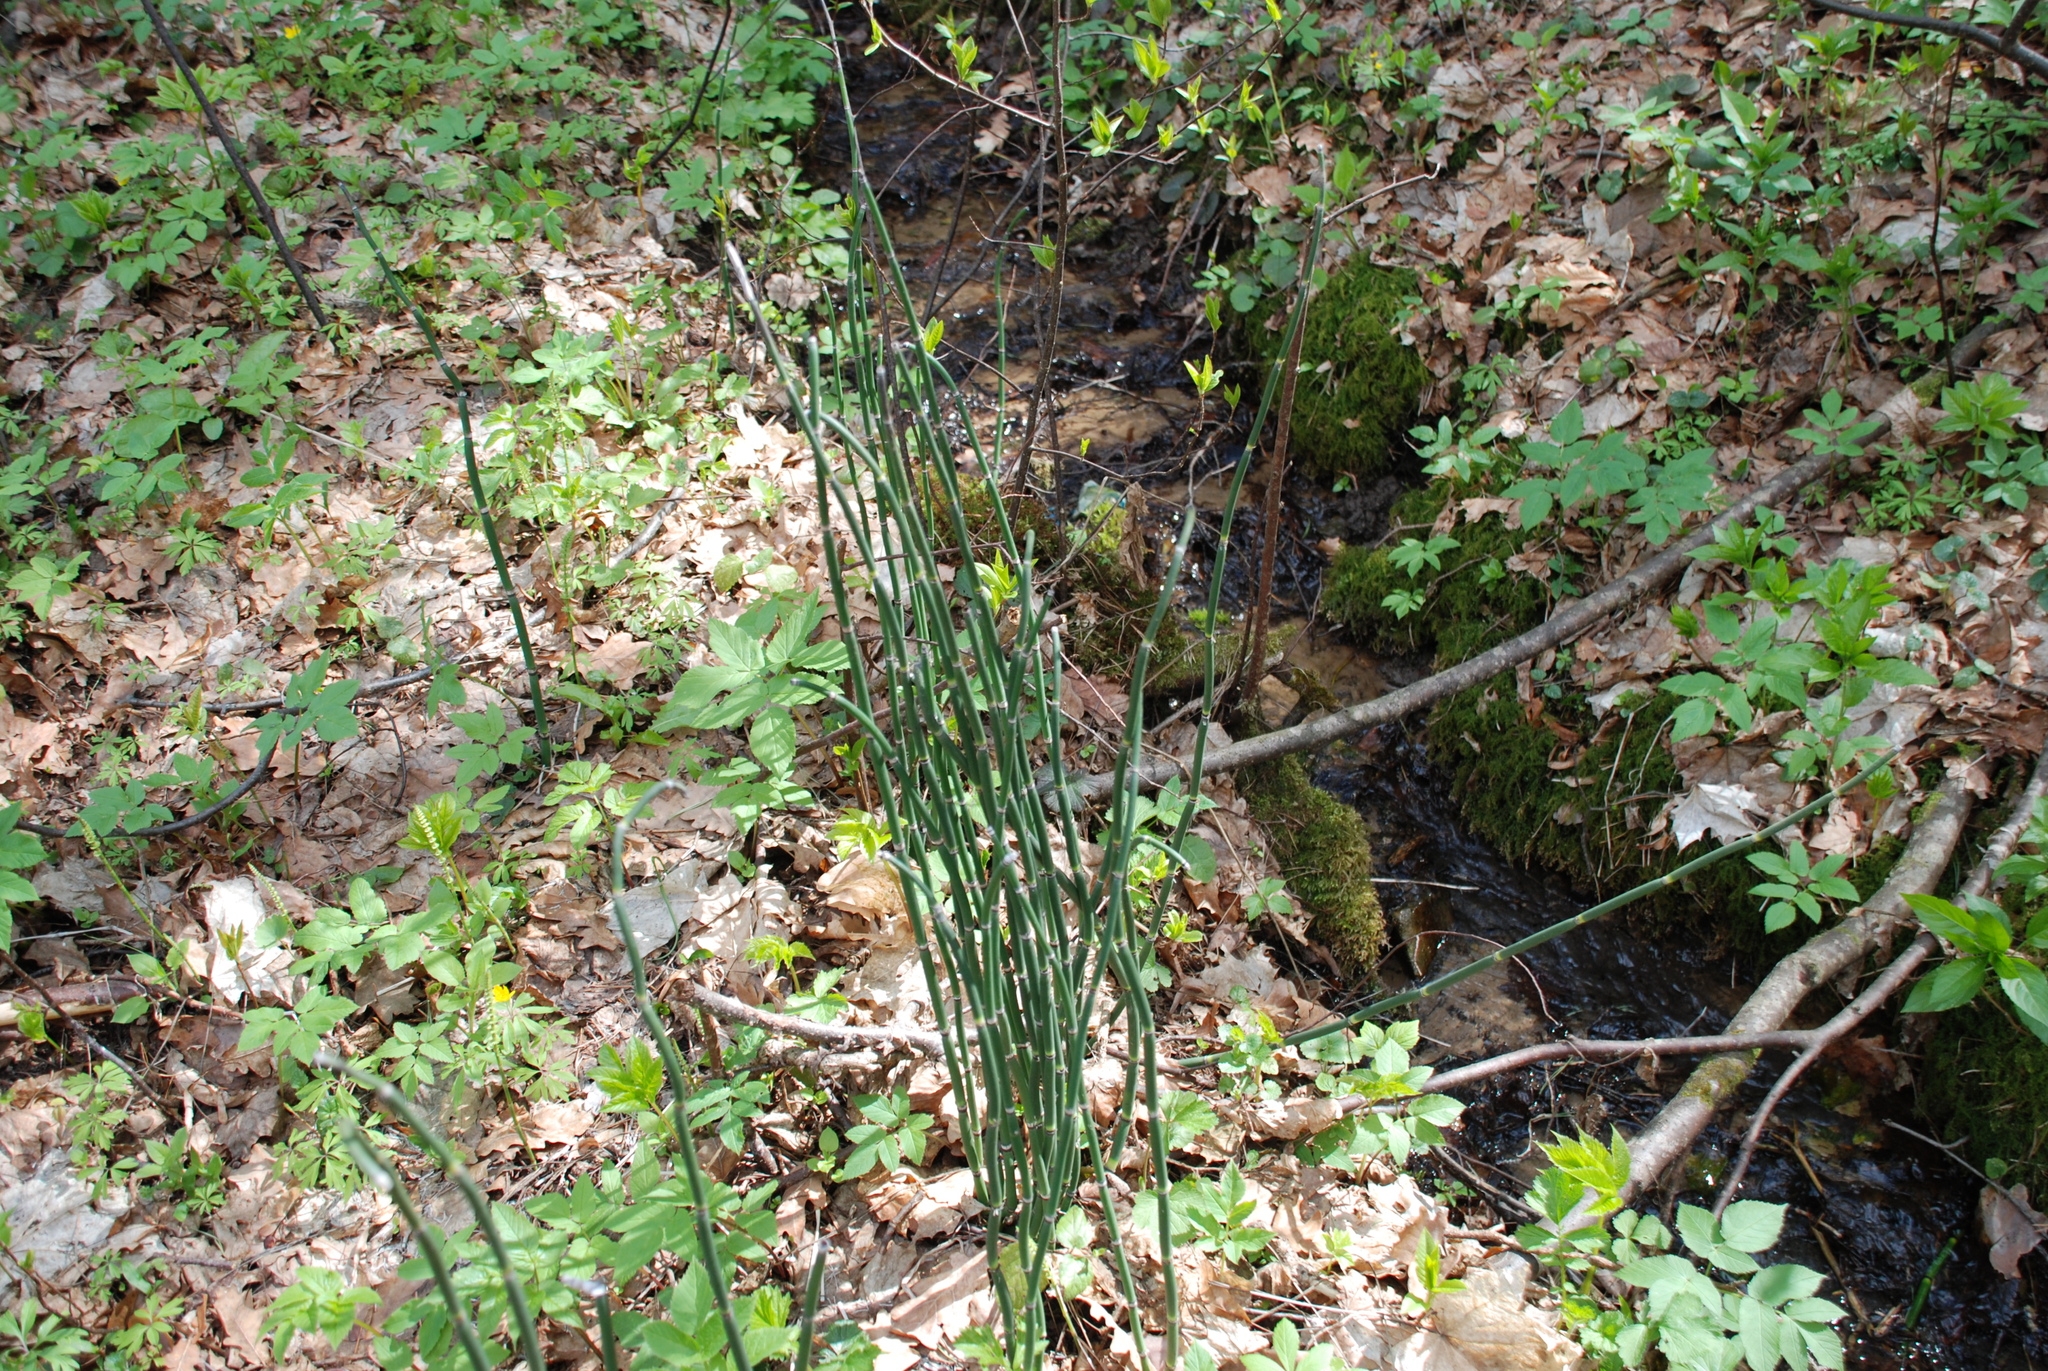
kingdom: Plantae
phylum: Tracheophyta
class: Polypodiopsida
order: Equisetales
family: Equisetaceae
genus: Equisetum
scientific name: Equisetum hyemale
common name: Rough horsetail
